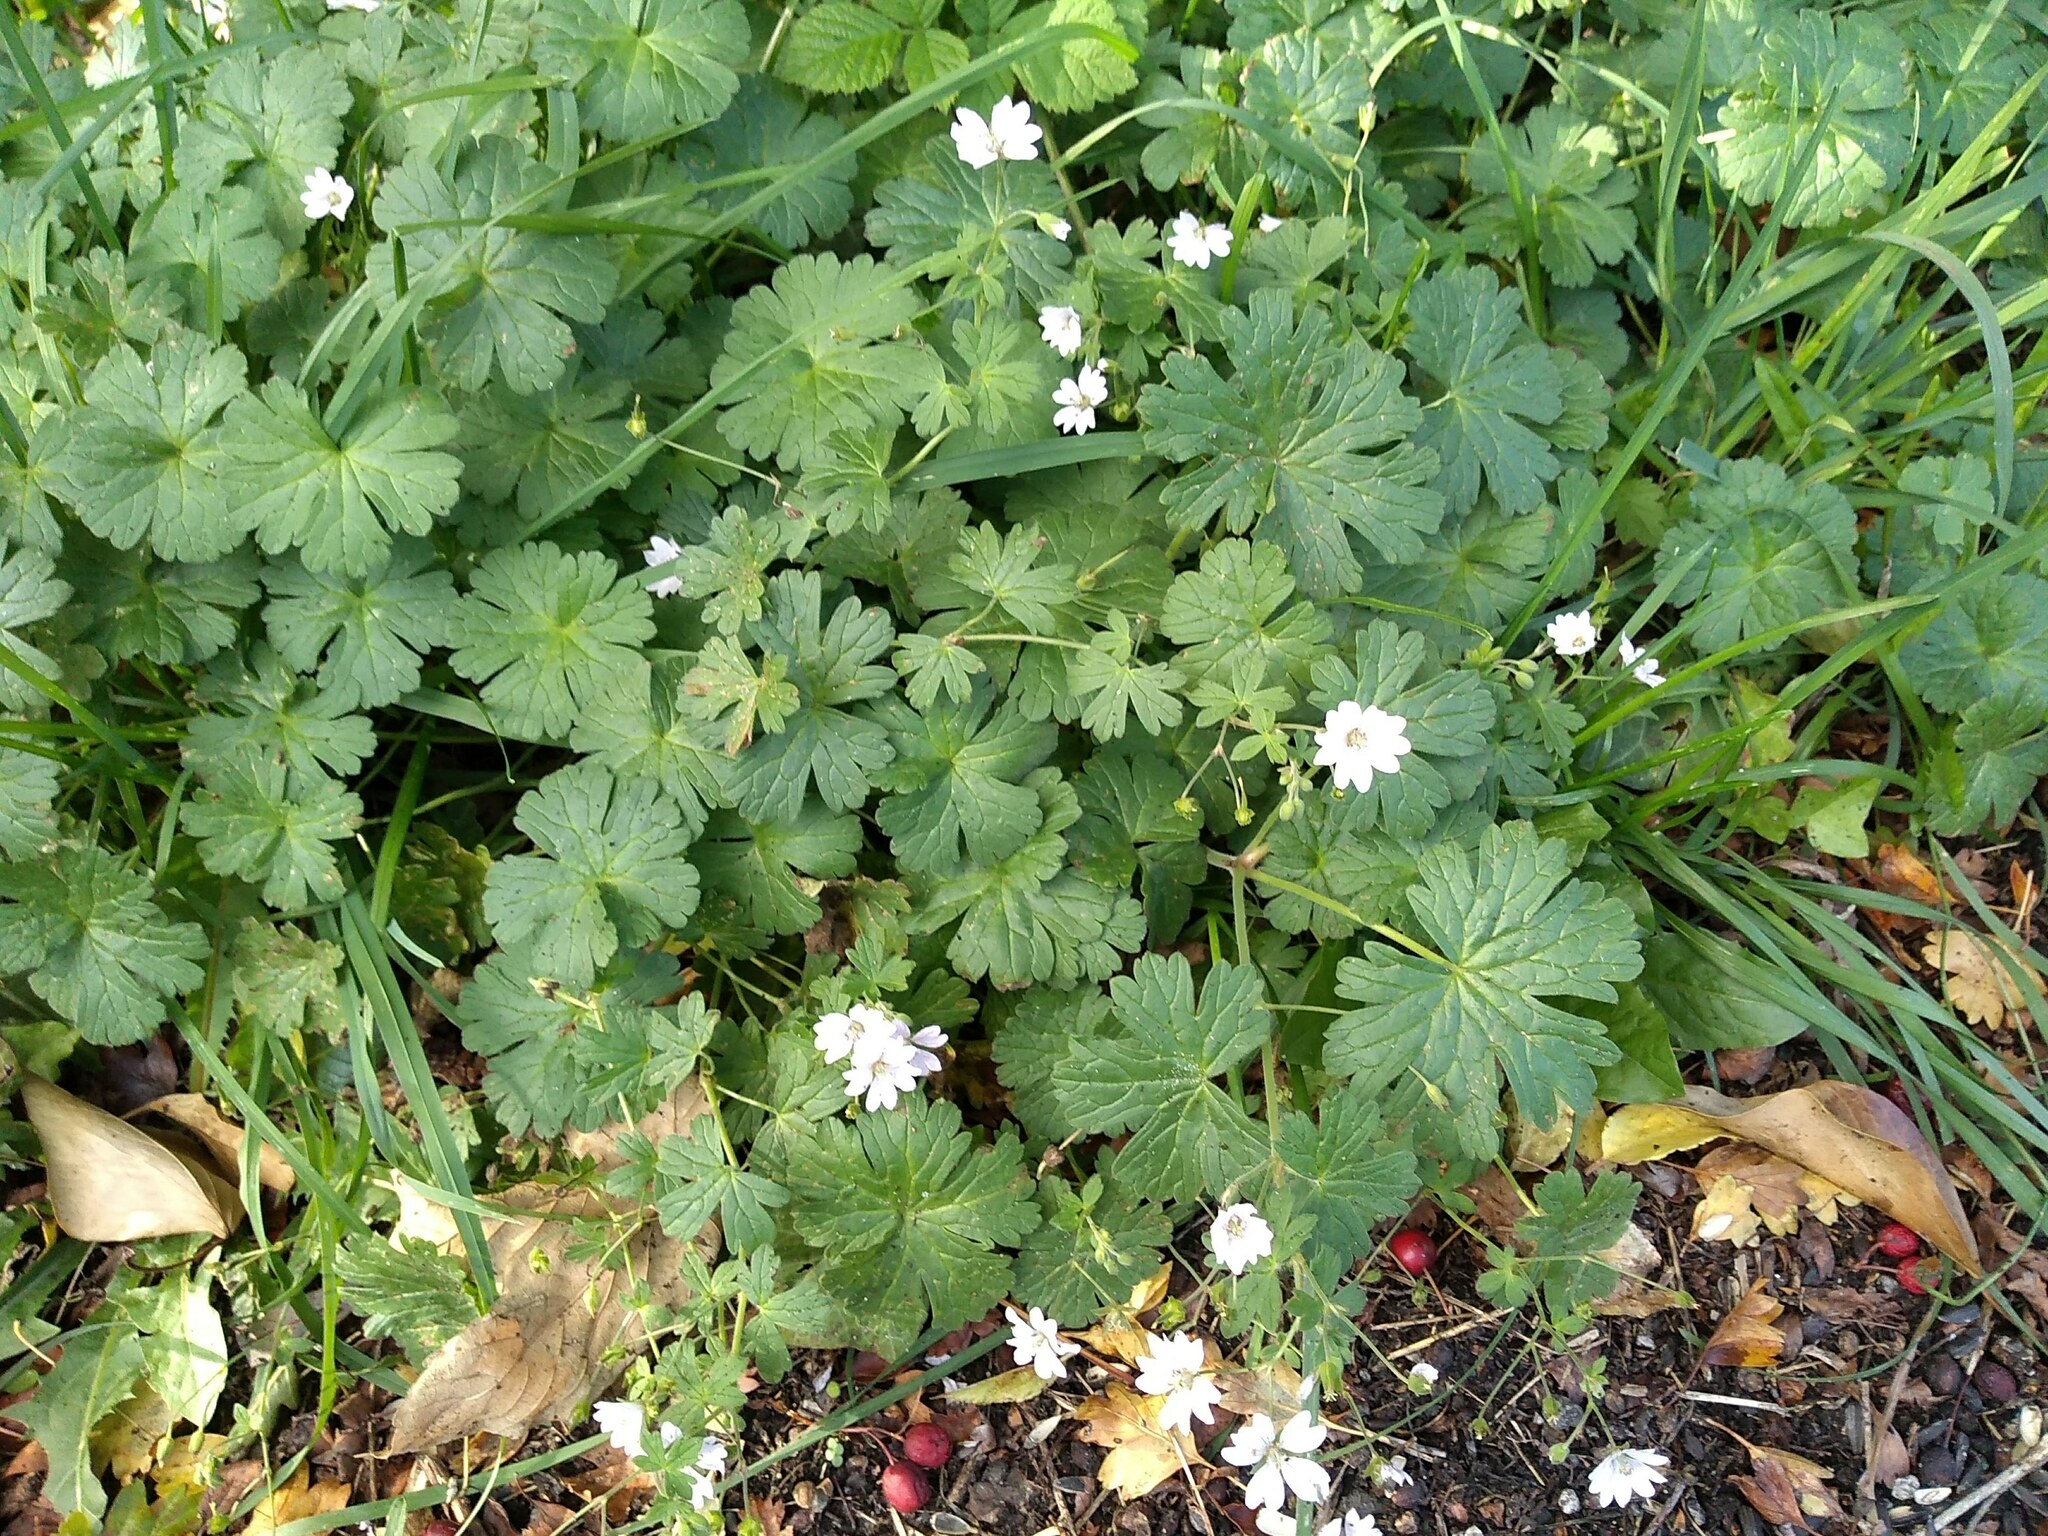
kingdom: Plantae
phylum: Tracheophyta
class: Magnoliopsida
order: Geraniales
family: Geraniaceae
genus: Geranium
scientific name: Geranium pyrenaicum
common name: Hedgerow crane's-bill
